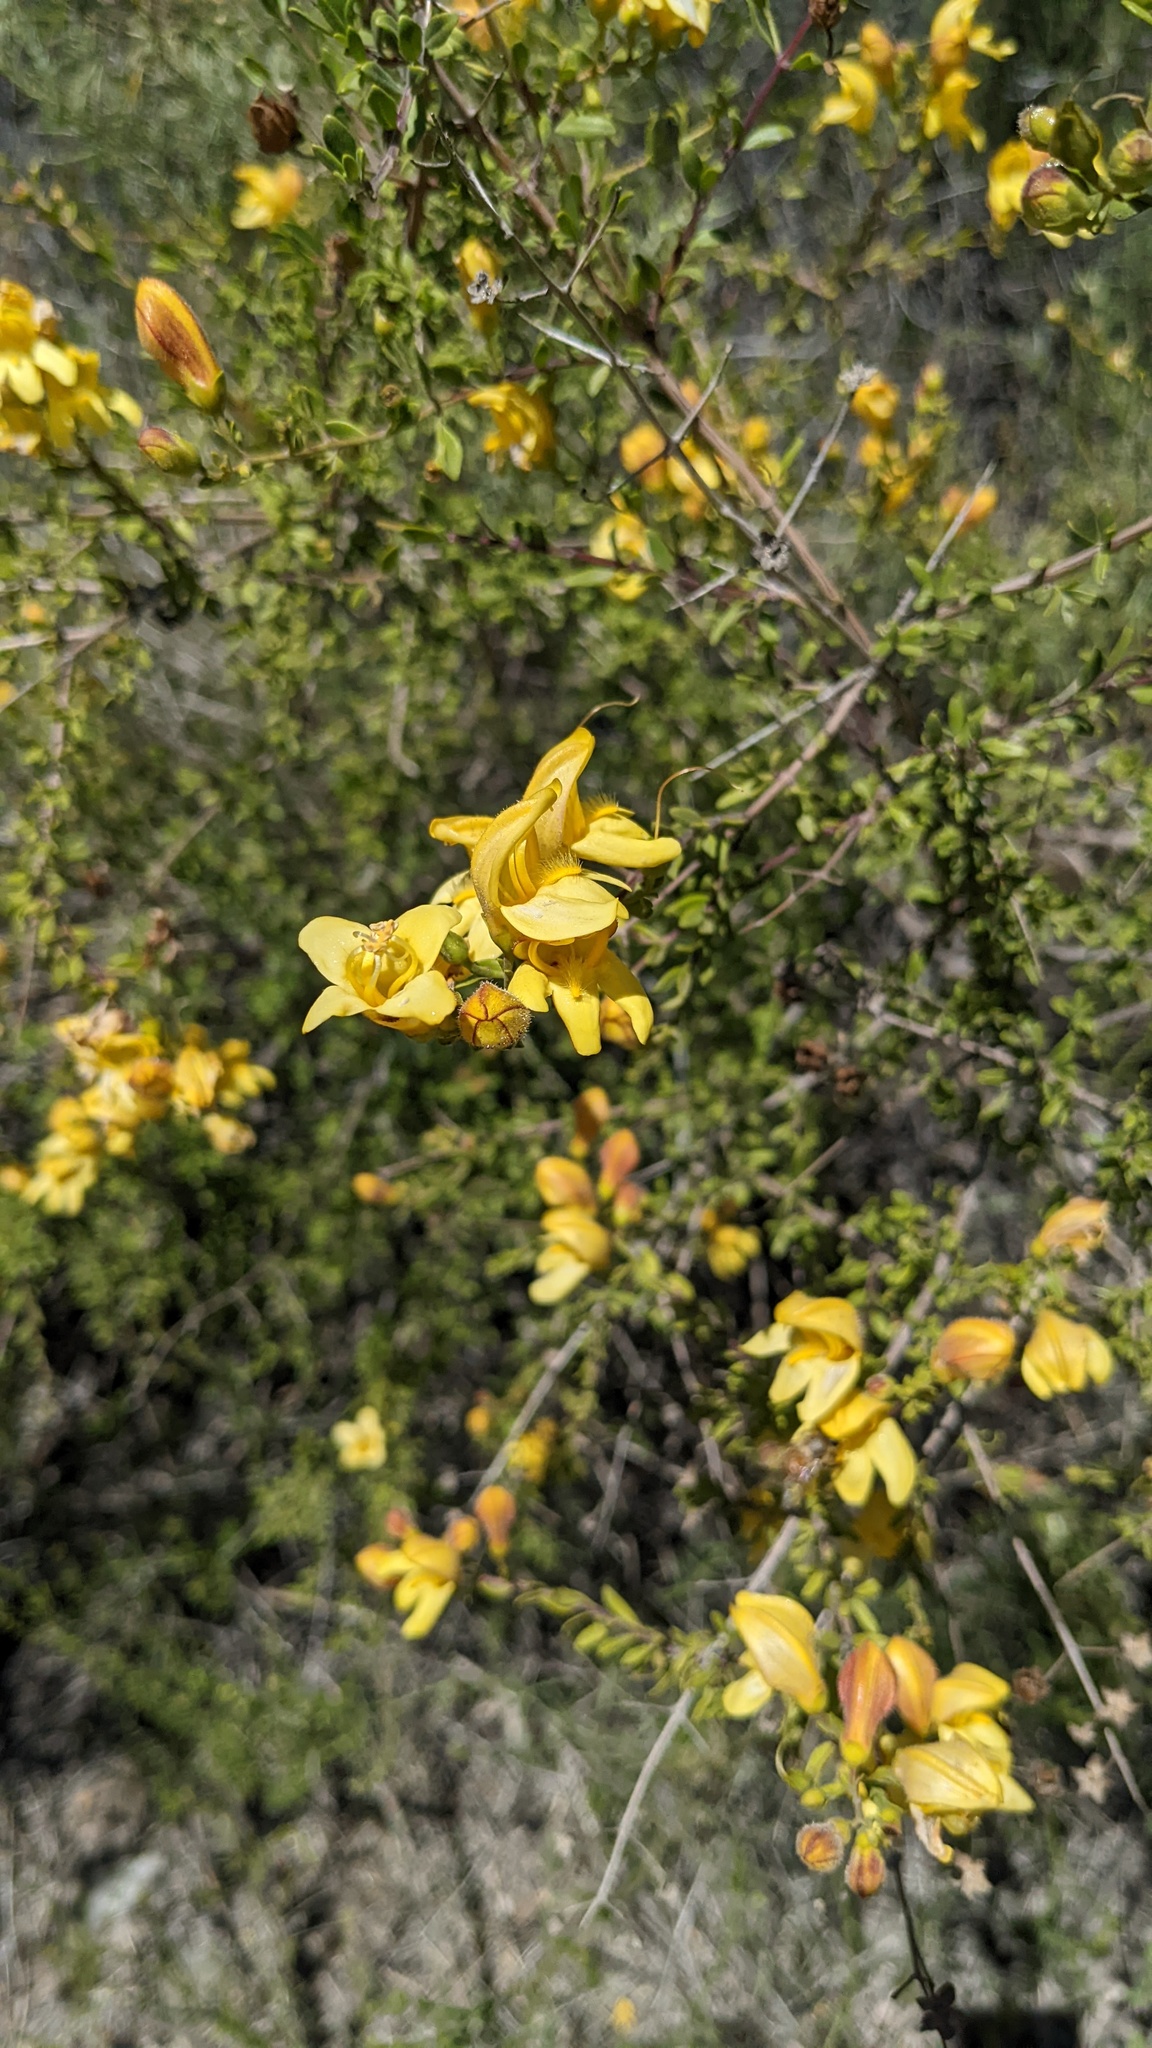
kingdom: Plantae
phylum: Tracheophyta
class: Magnoliopsida
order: Lamiales
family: Plantaginaceae
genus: Keckiella
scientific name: Keckiella antirrhinoides
